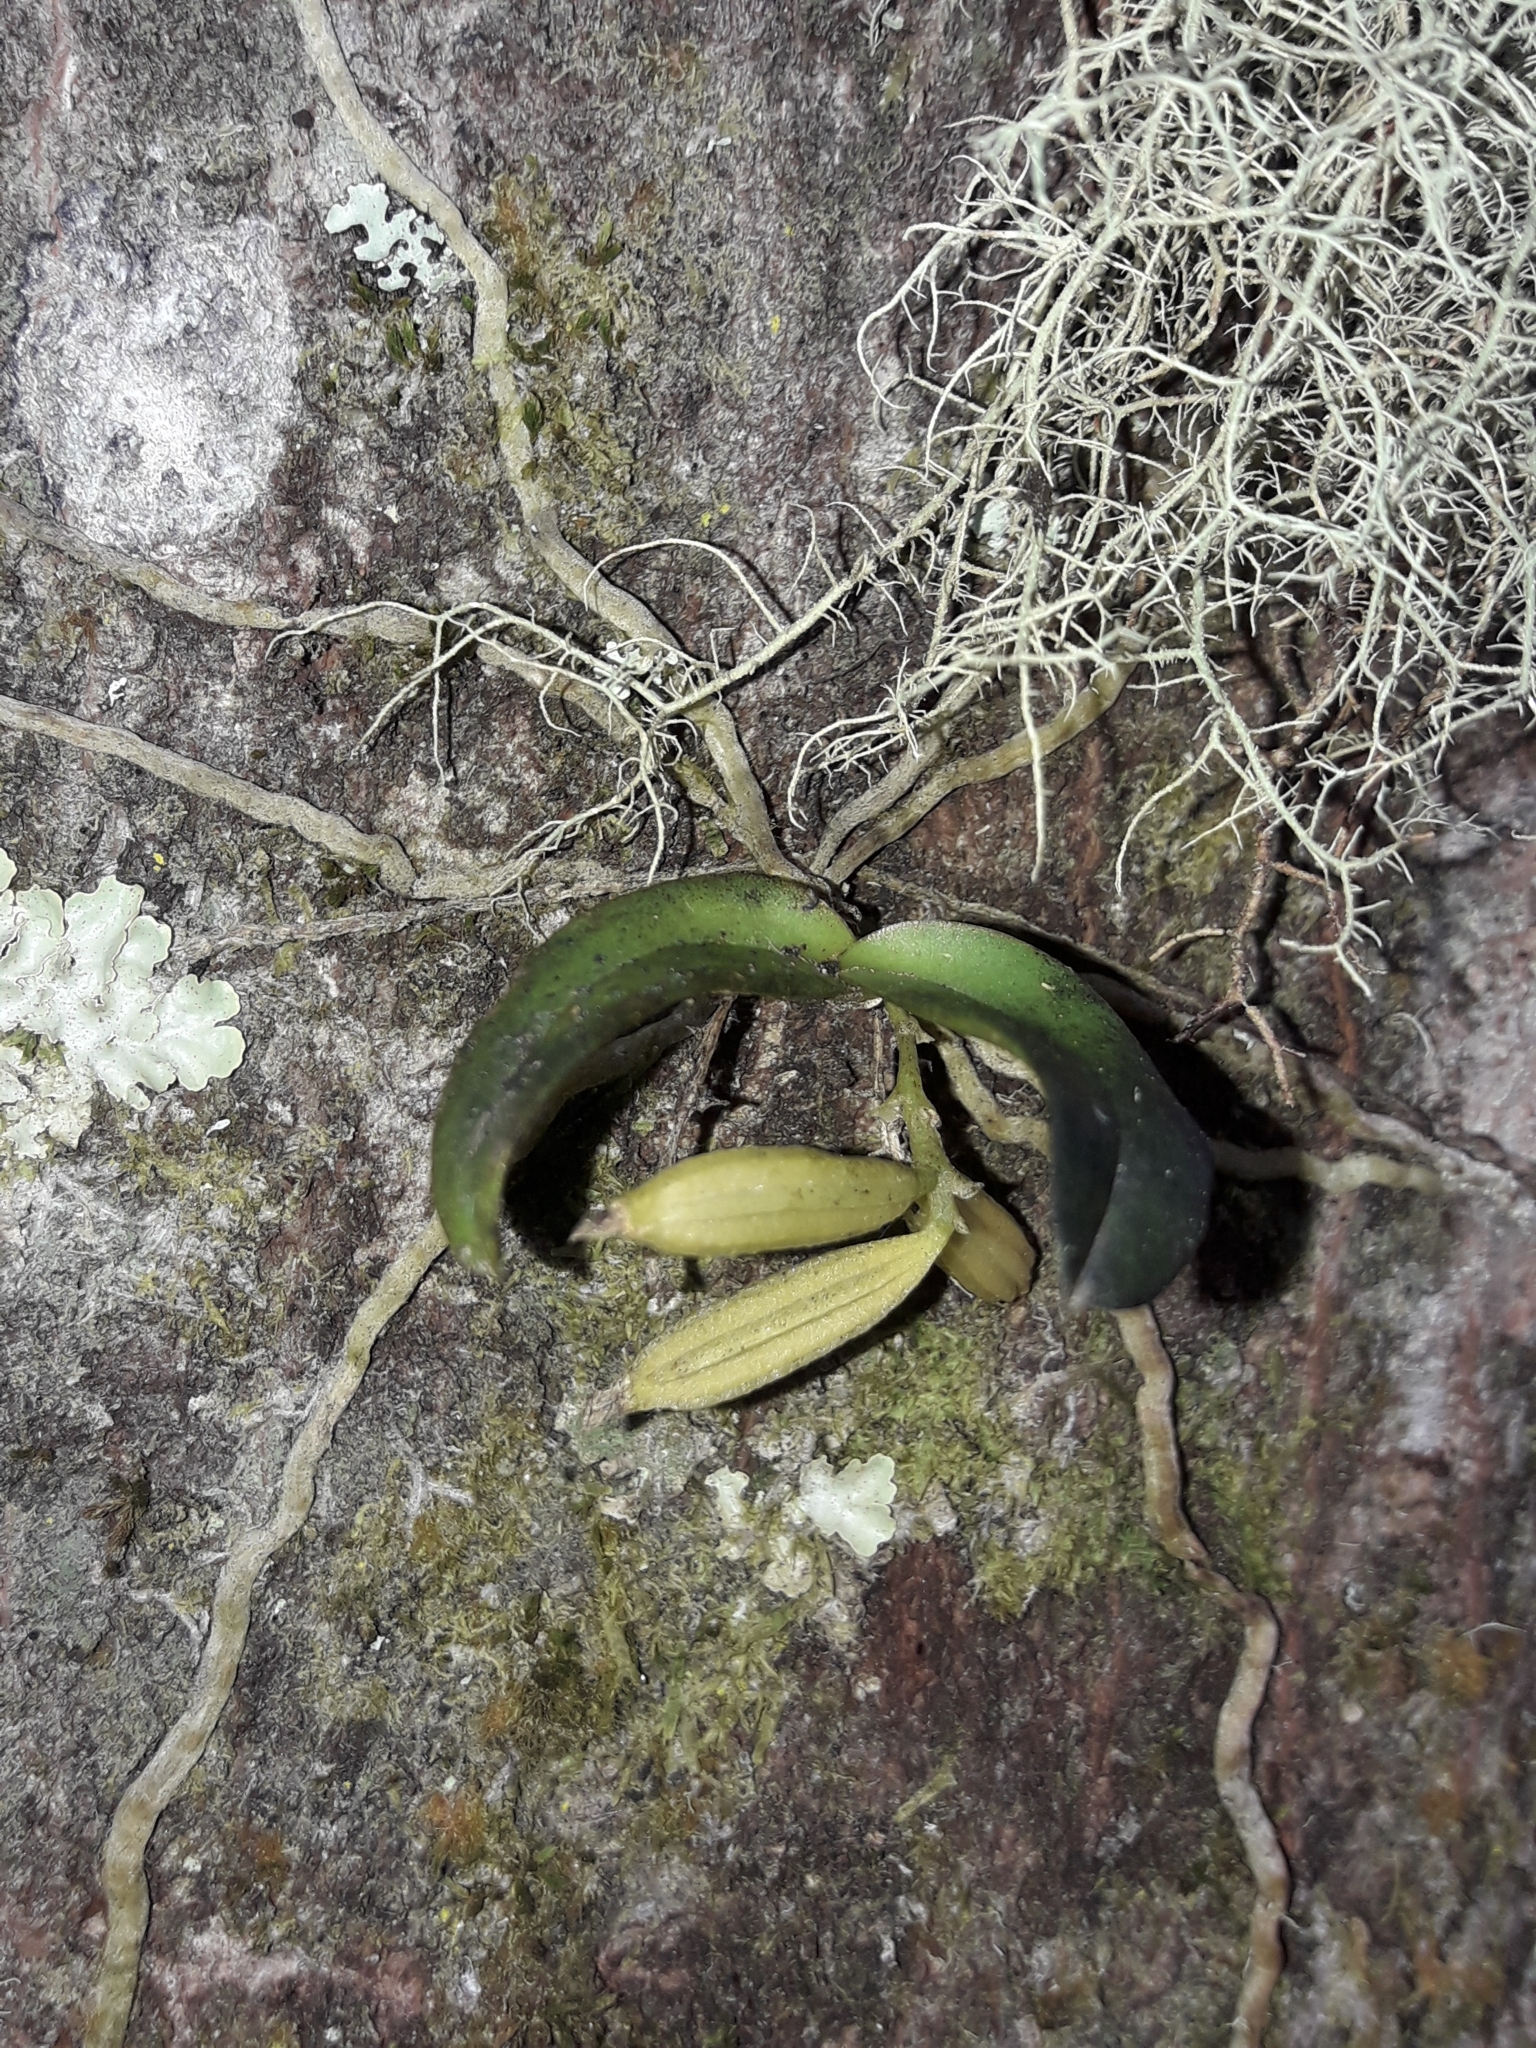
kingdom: Plantae
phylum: Tracheophyta
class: Liliopsida
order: Asparagales
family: Orchidaceae
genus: Drymoanthus
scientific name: Drymoanthus adversus
